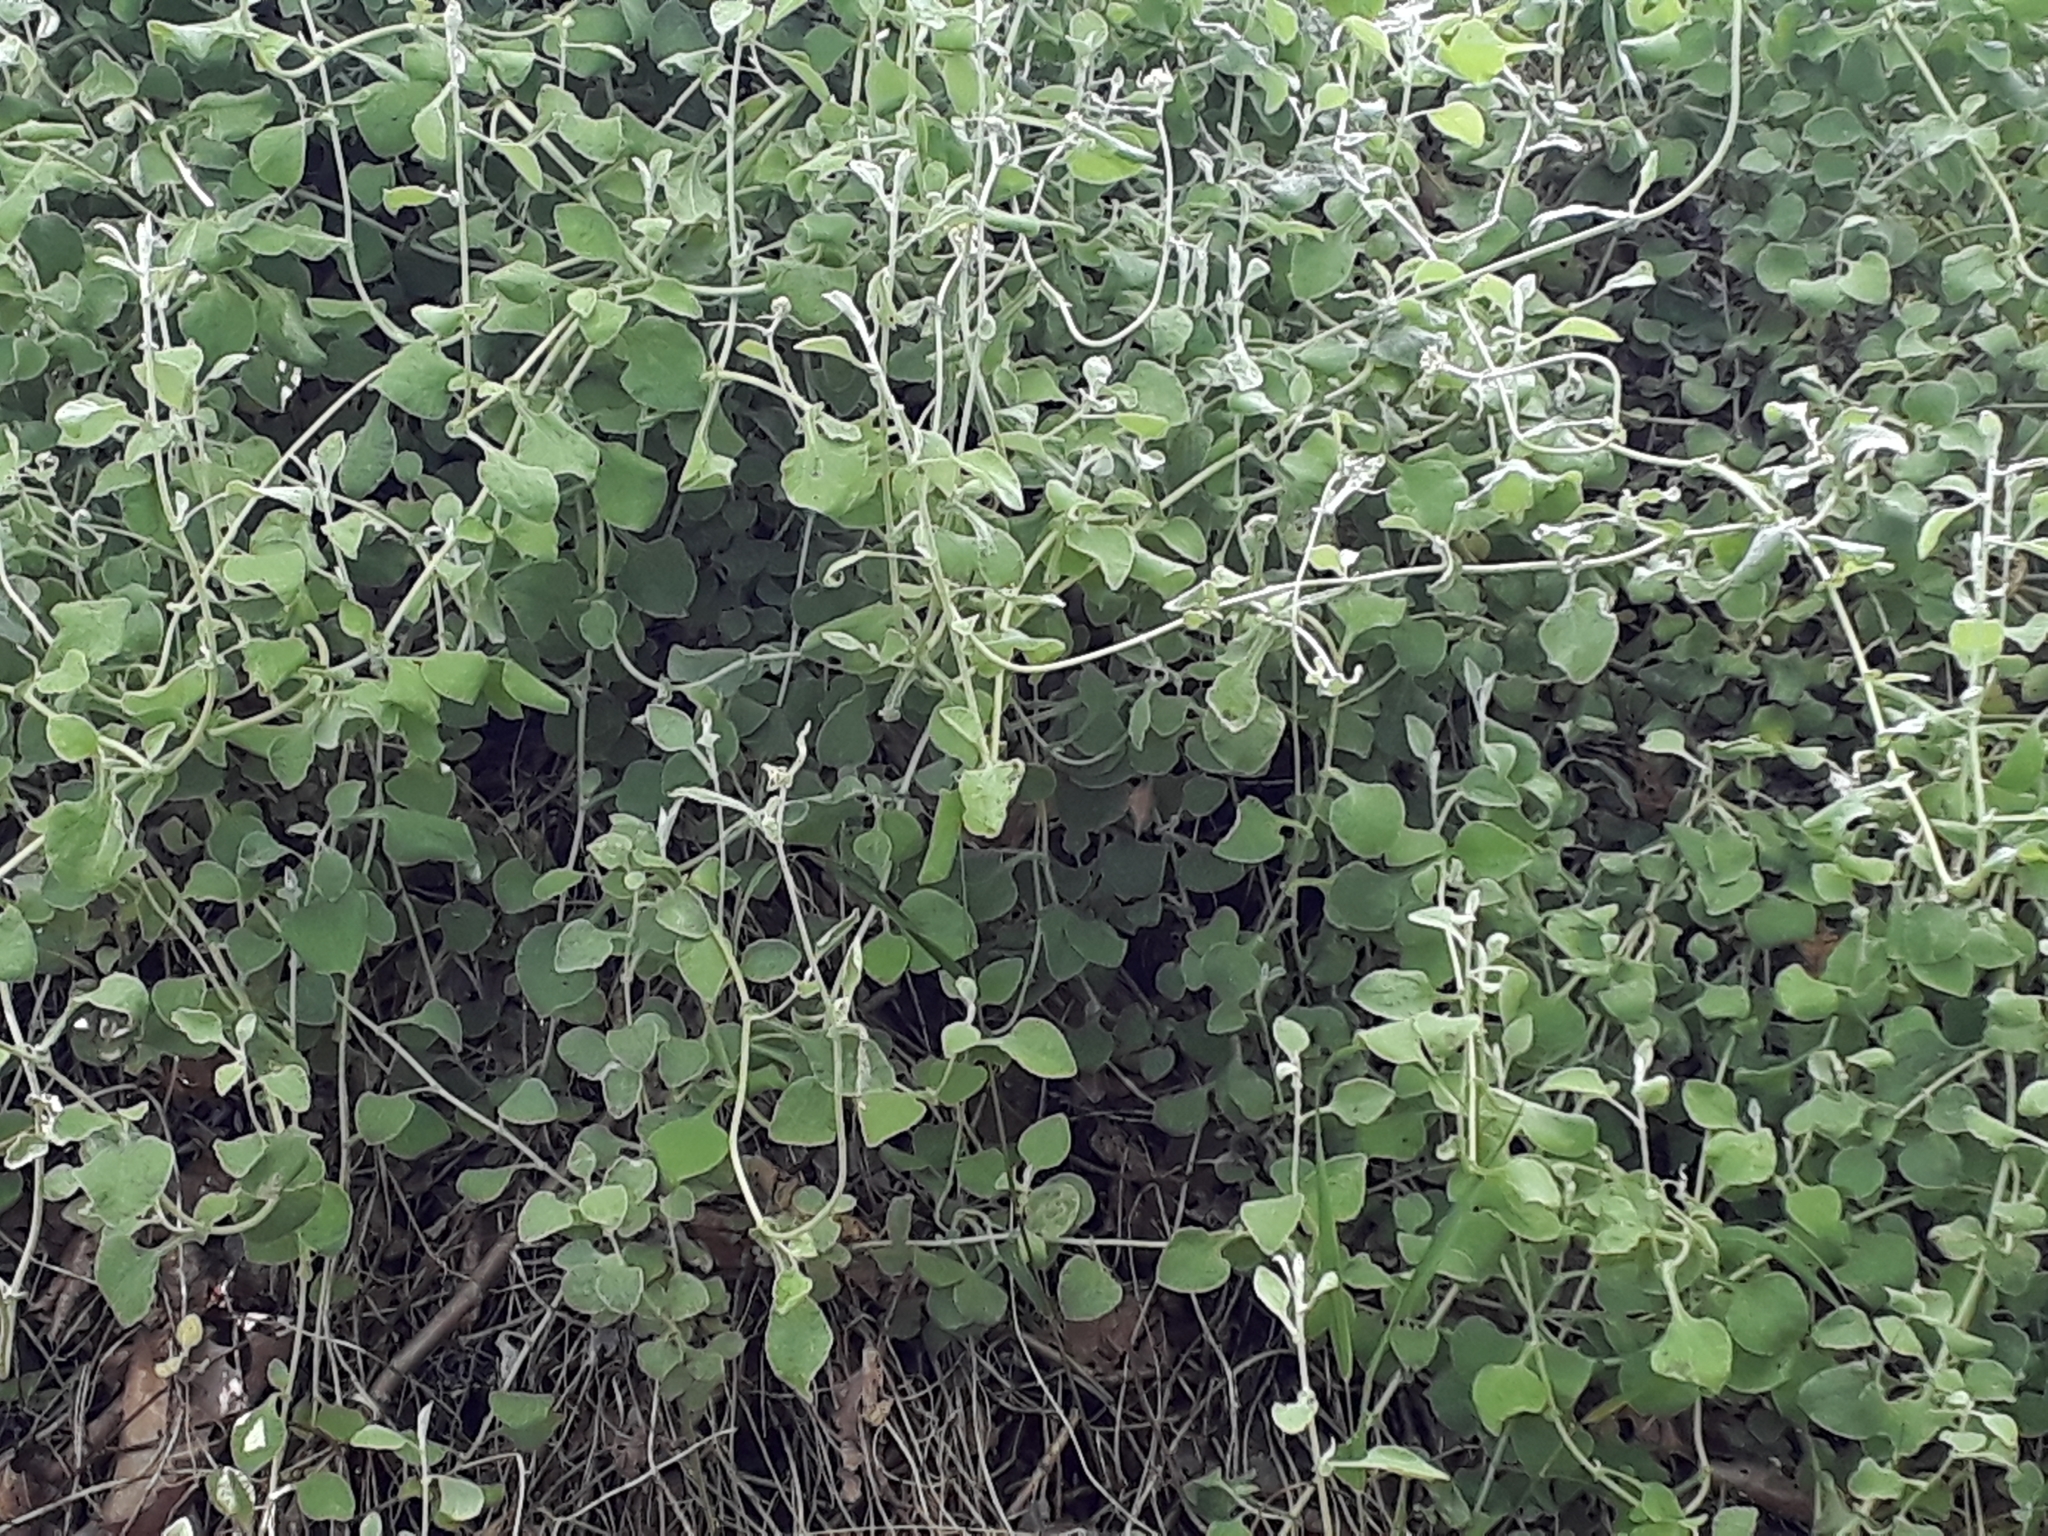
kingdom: Plantae
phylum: Tracheophyta
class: Magnoliopsida
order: Asterales
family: Asteraceae
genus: Helichrysum
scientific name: Helichrysum petiolare
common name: Licorice-plant
